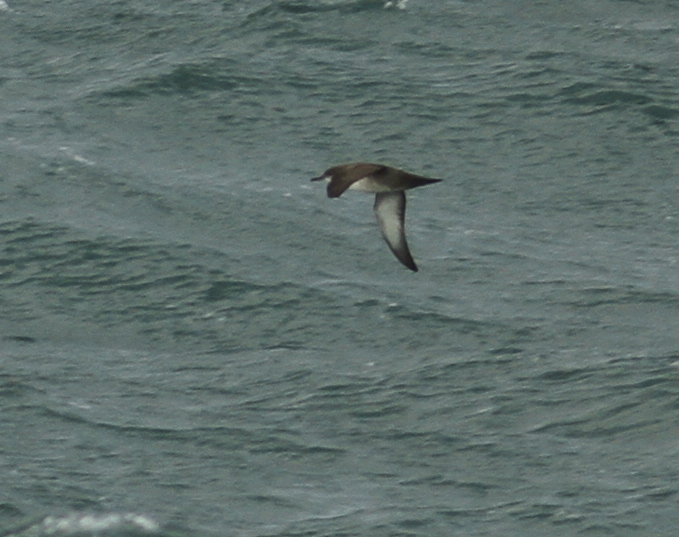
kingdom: Animalia
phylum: Chordata
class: Aves
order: Procellariiformes
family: Procellariidae
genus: Puffinus
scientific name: Puffinus mauretanicus
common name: Balearic shearwater
